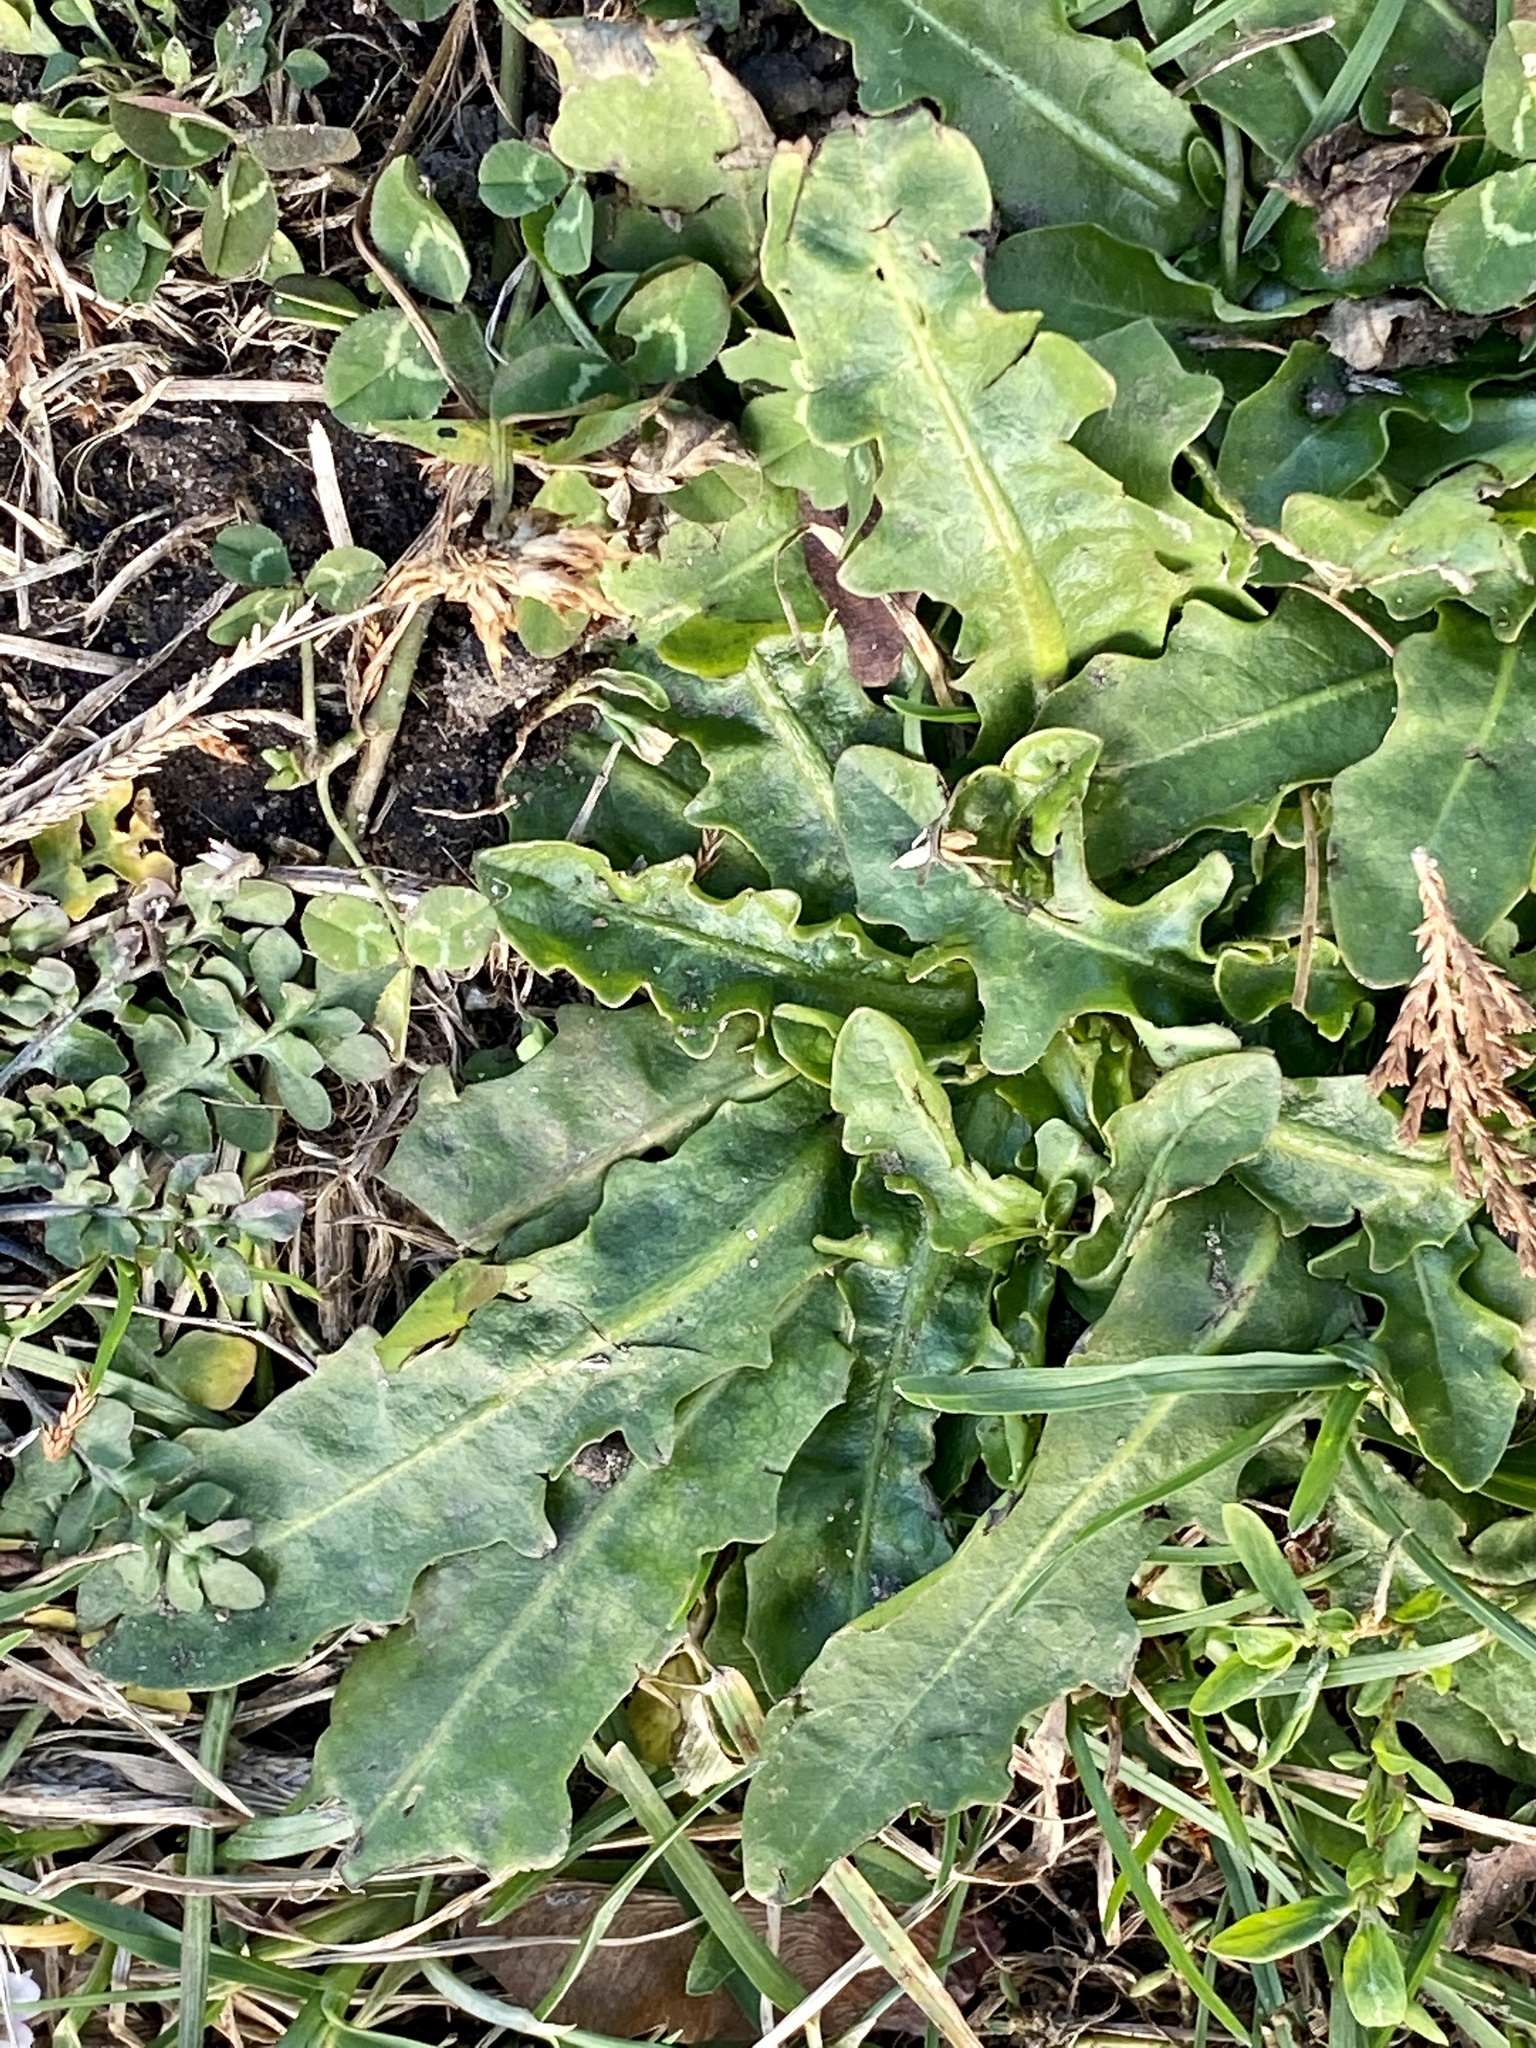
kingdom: Plantae
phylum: Tracheophyta
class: Magnoliopsida
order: Asterales
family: Asteraceae
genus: Hypochaeris
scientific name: Hypochaeris radicata
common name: Flatweed
